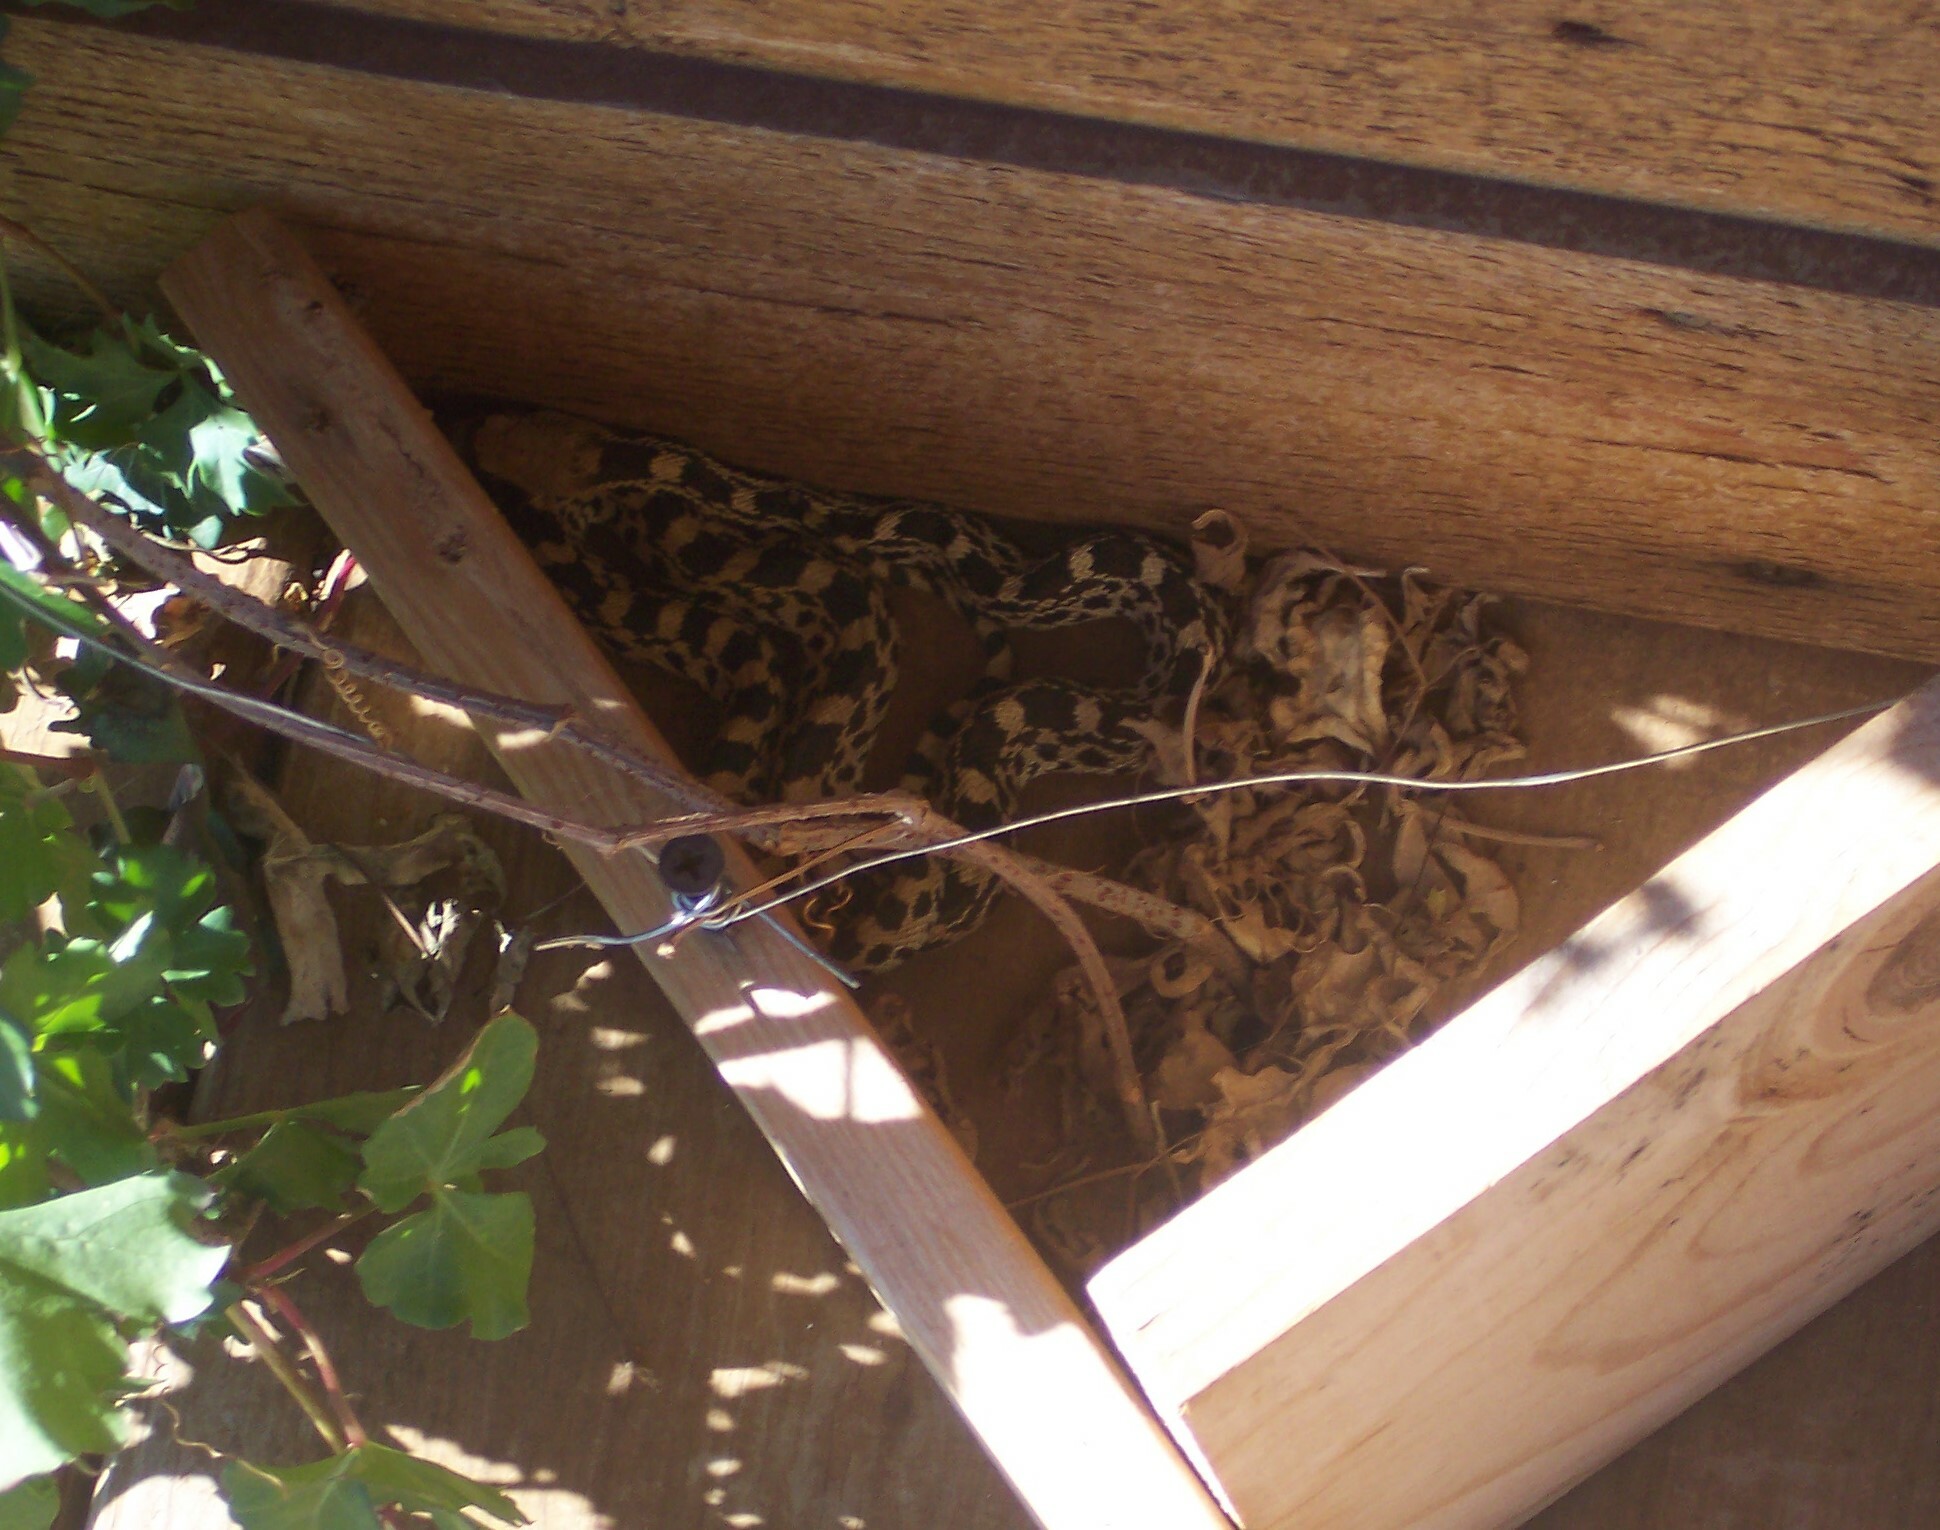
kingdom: Animalia
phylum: Chordata
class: Squamata
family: Colubridae
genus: Pituophis
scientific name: Pituophis catenifer
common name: Gopher snake
